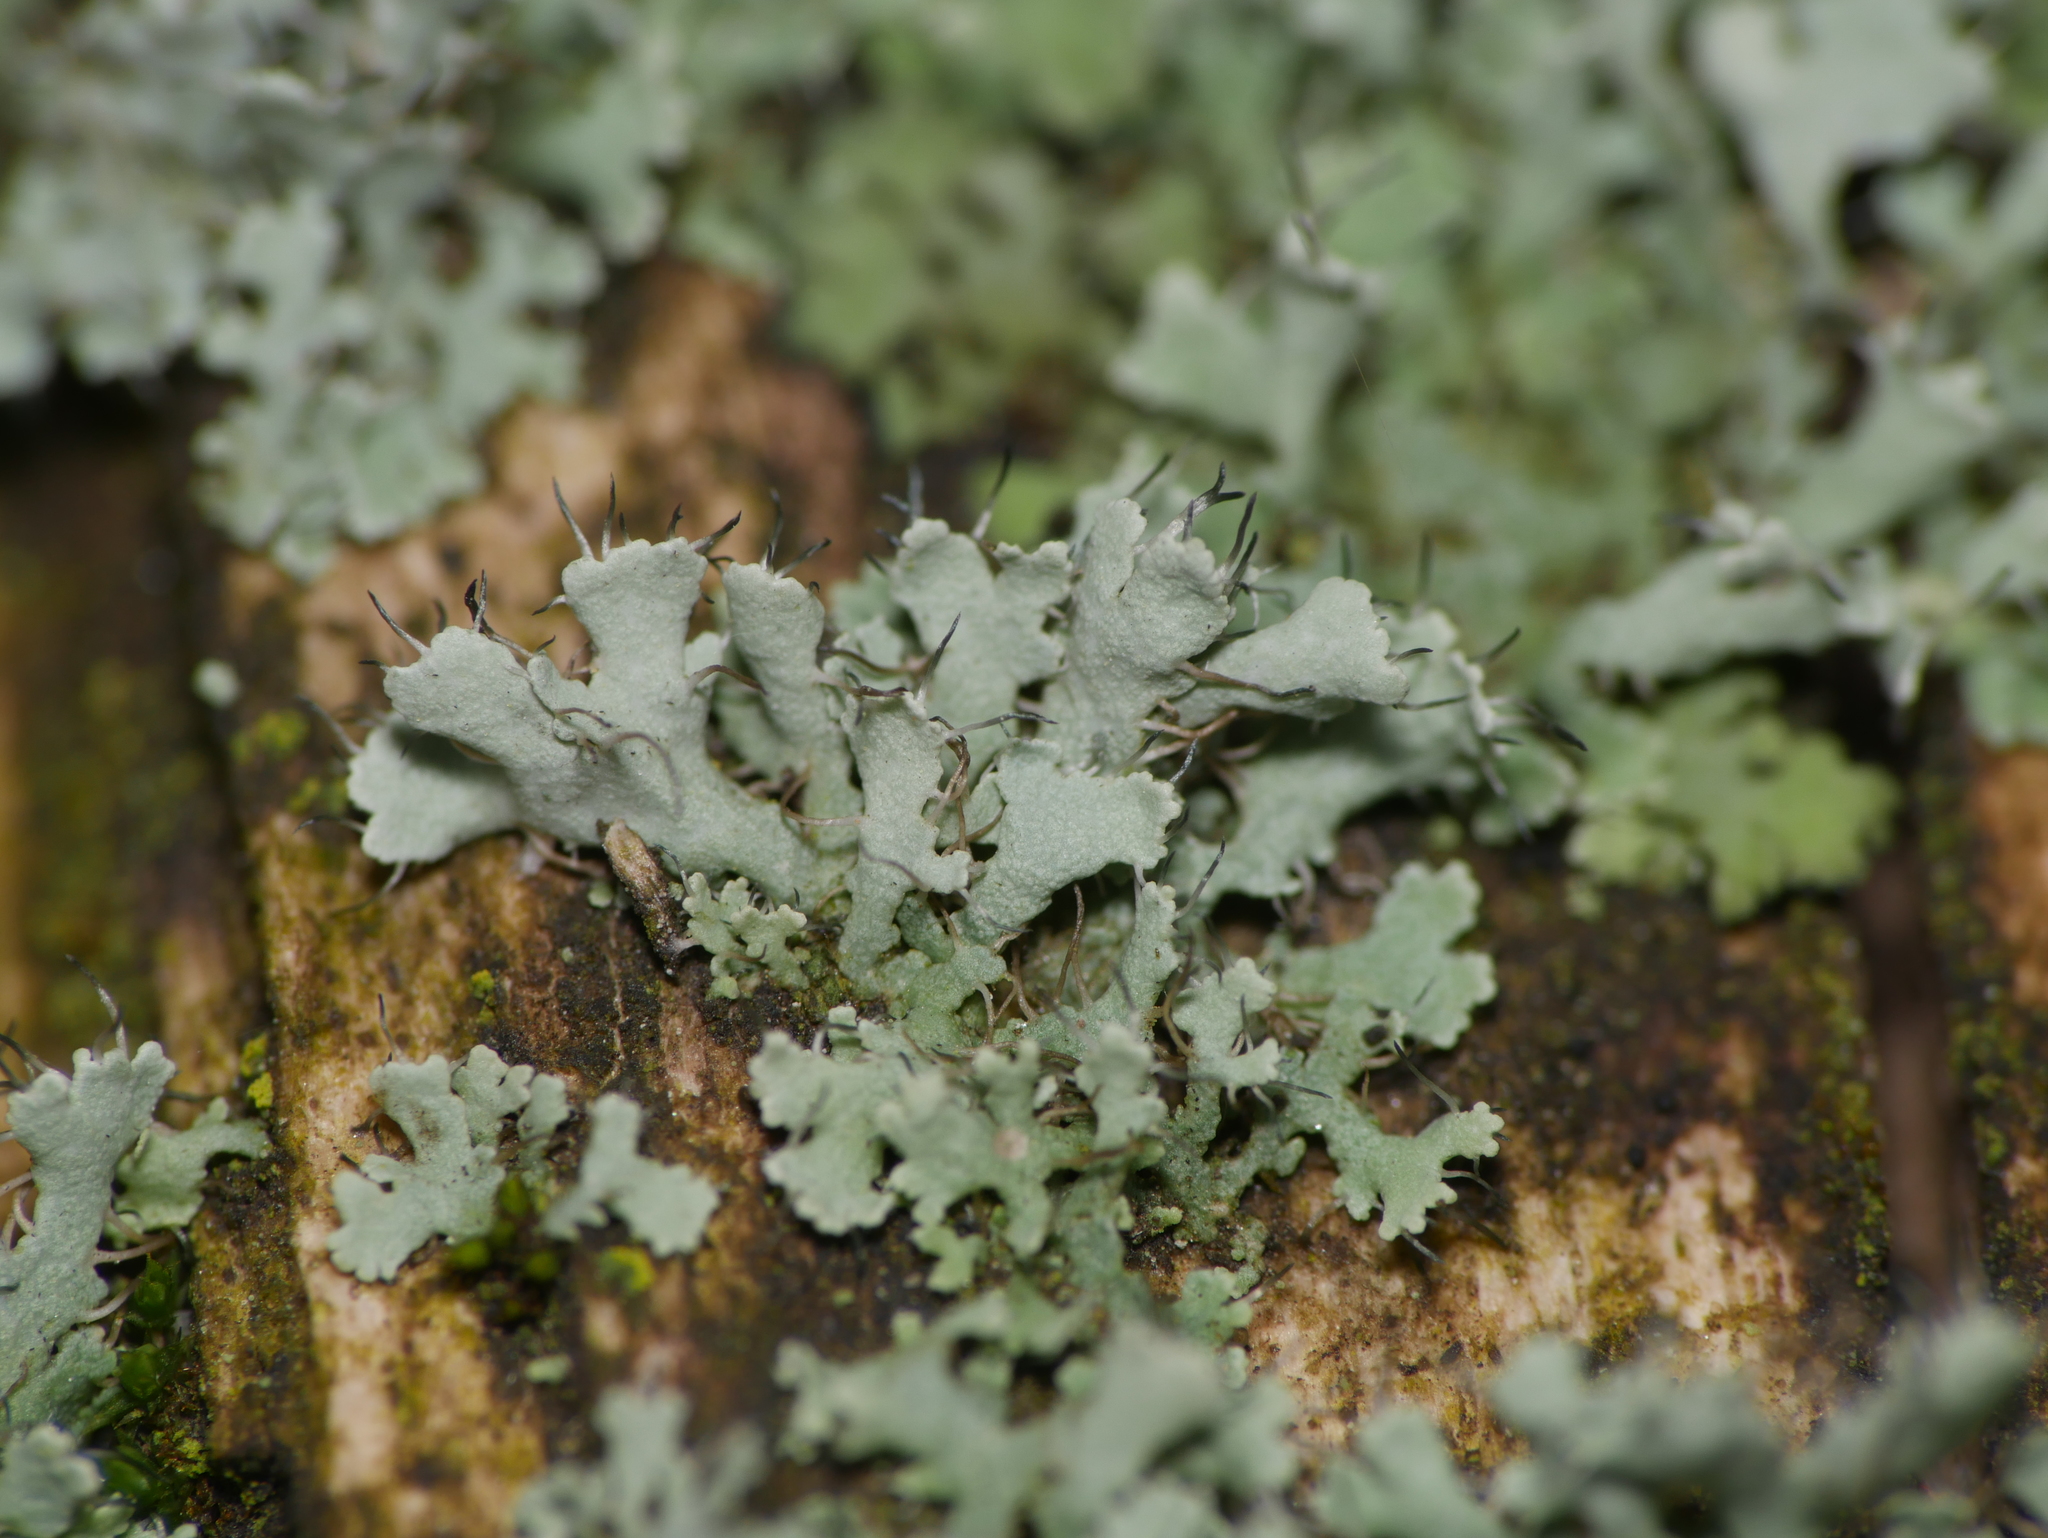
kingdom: Fungi
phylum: Ascomycota
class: Lecanoromycetes
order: Caliciales
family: Physciaceae
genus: Physcia
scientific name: Physcia adscendens
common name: Hooded rosette lichen
